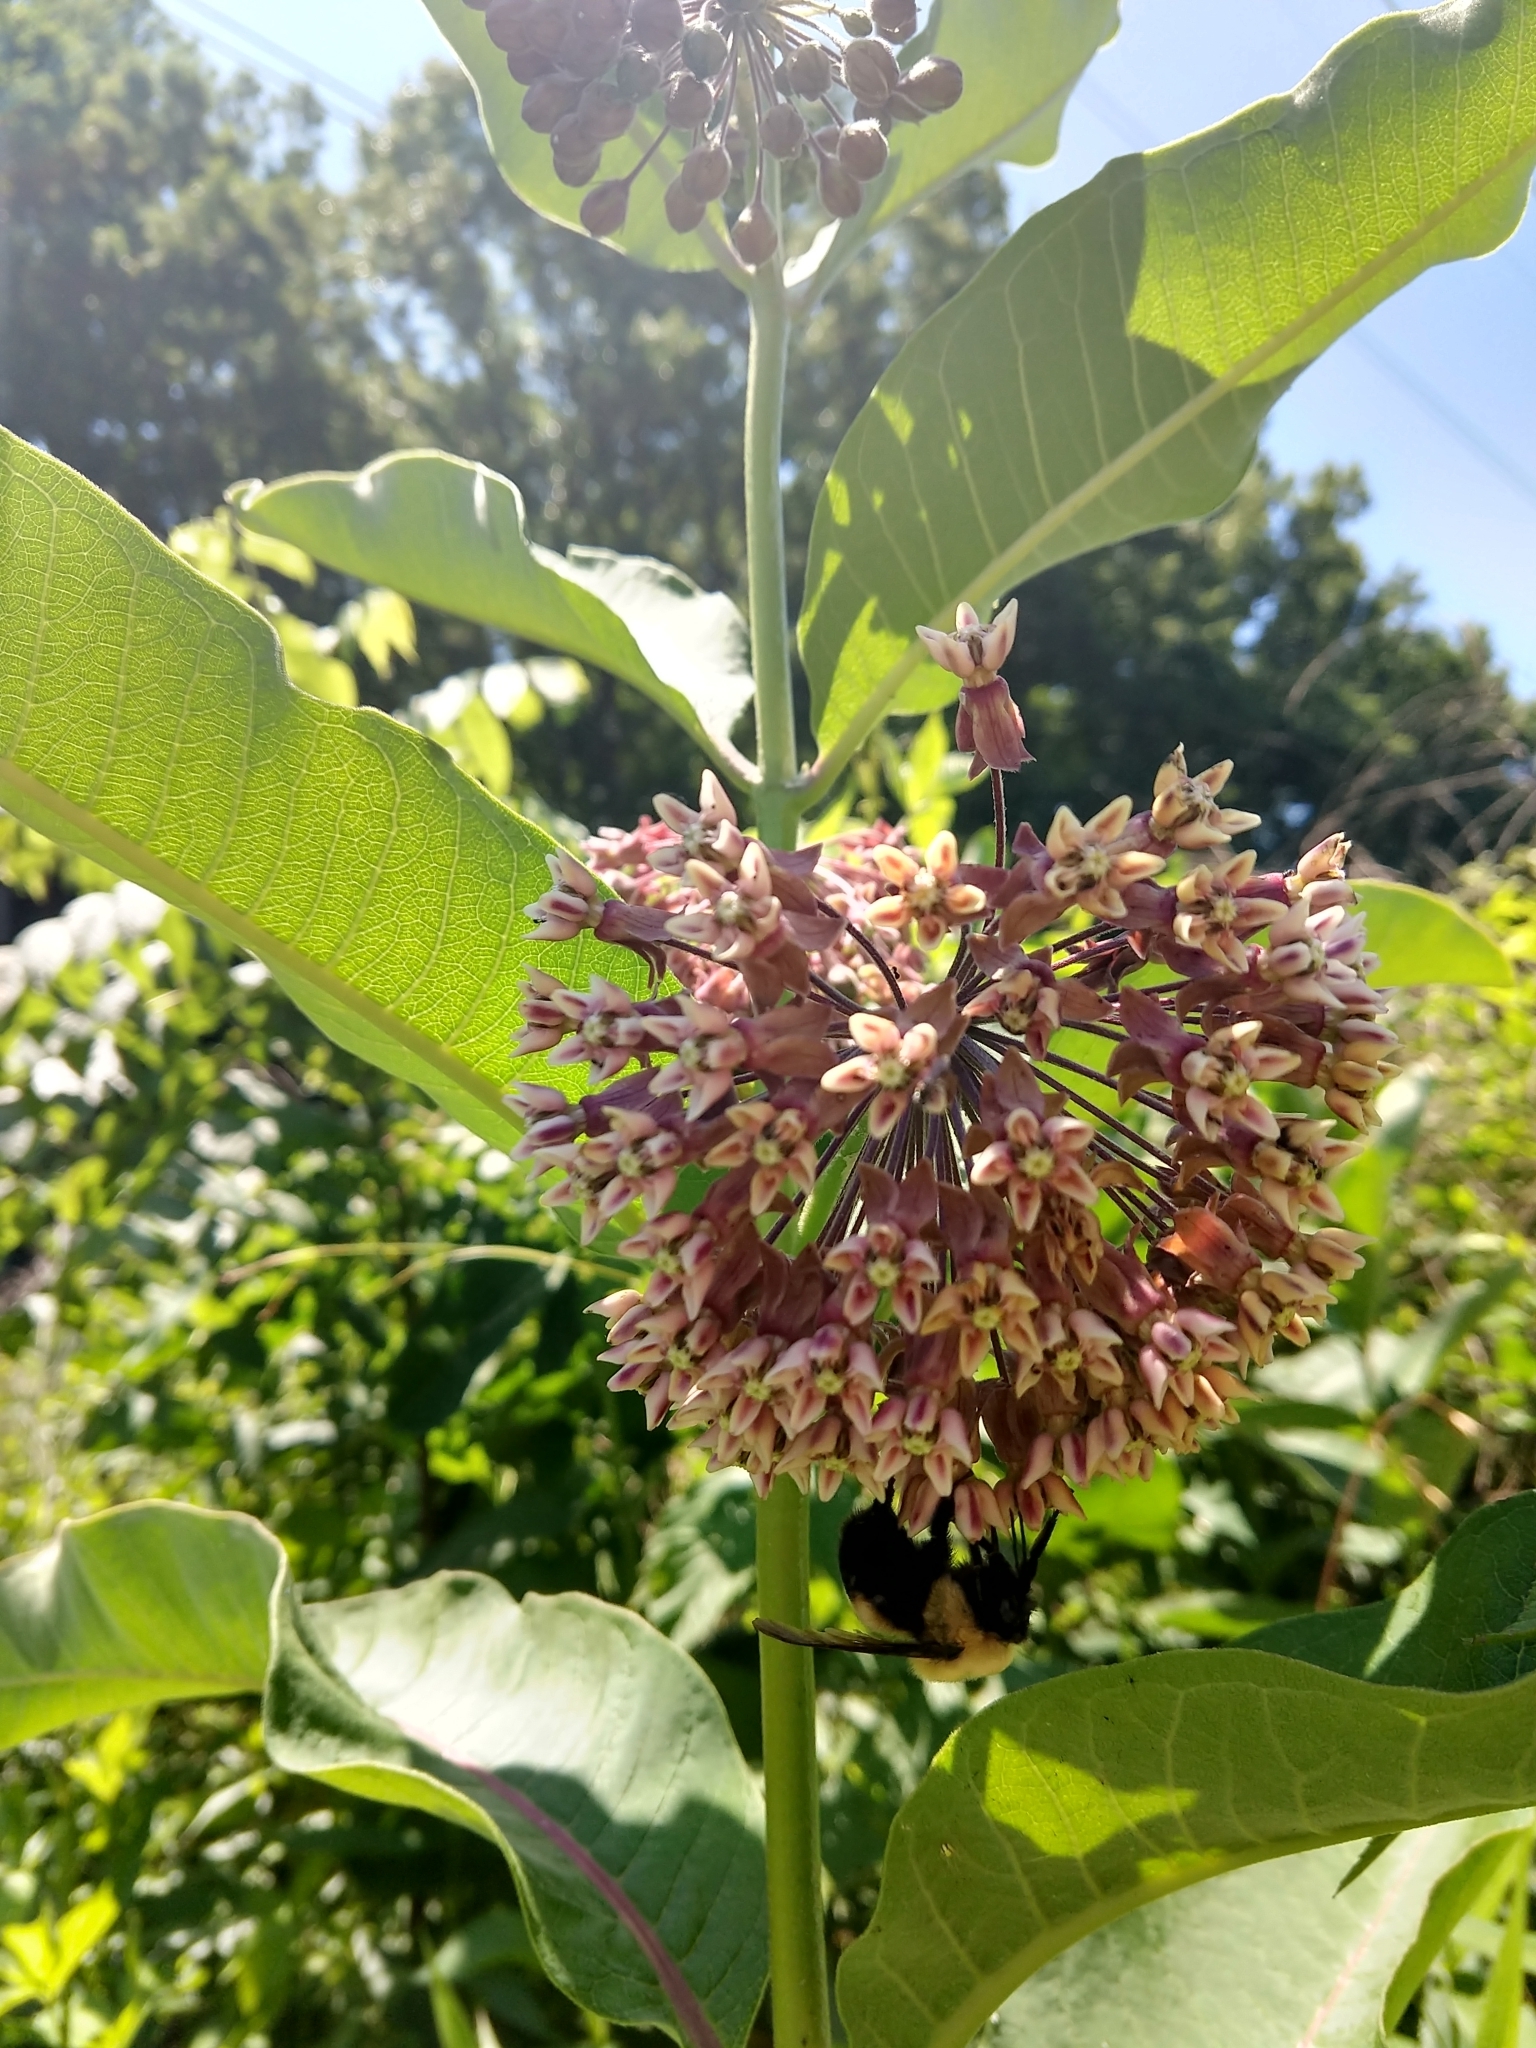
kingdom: Plantae
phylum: Tracheophyta
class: Magnoliopsida
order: Gentianales
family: Apocynaceae
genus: Asclepias
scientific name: Asclepias syriaca
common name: Common milkweed
